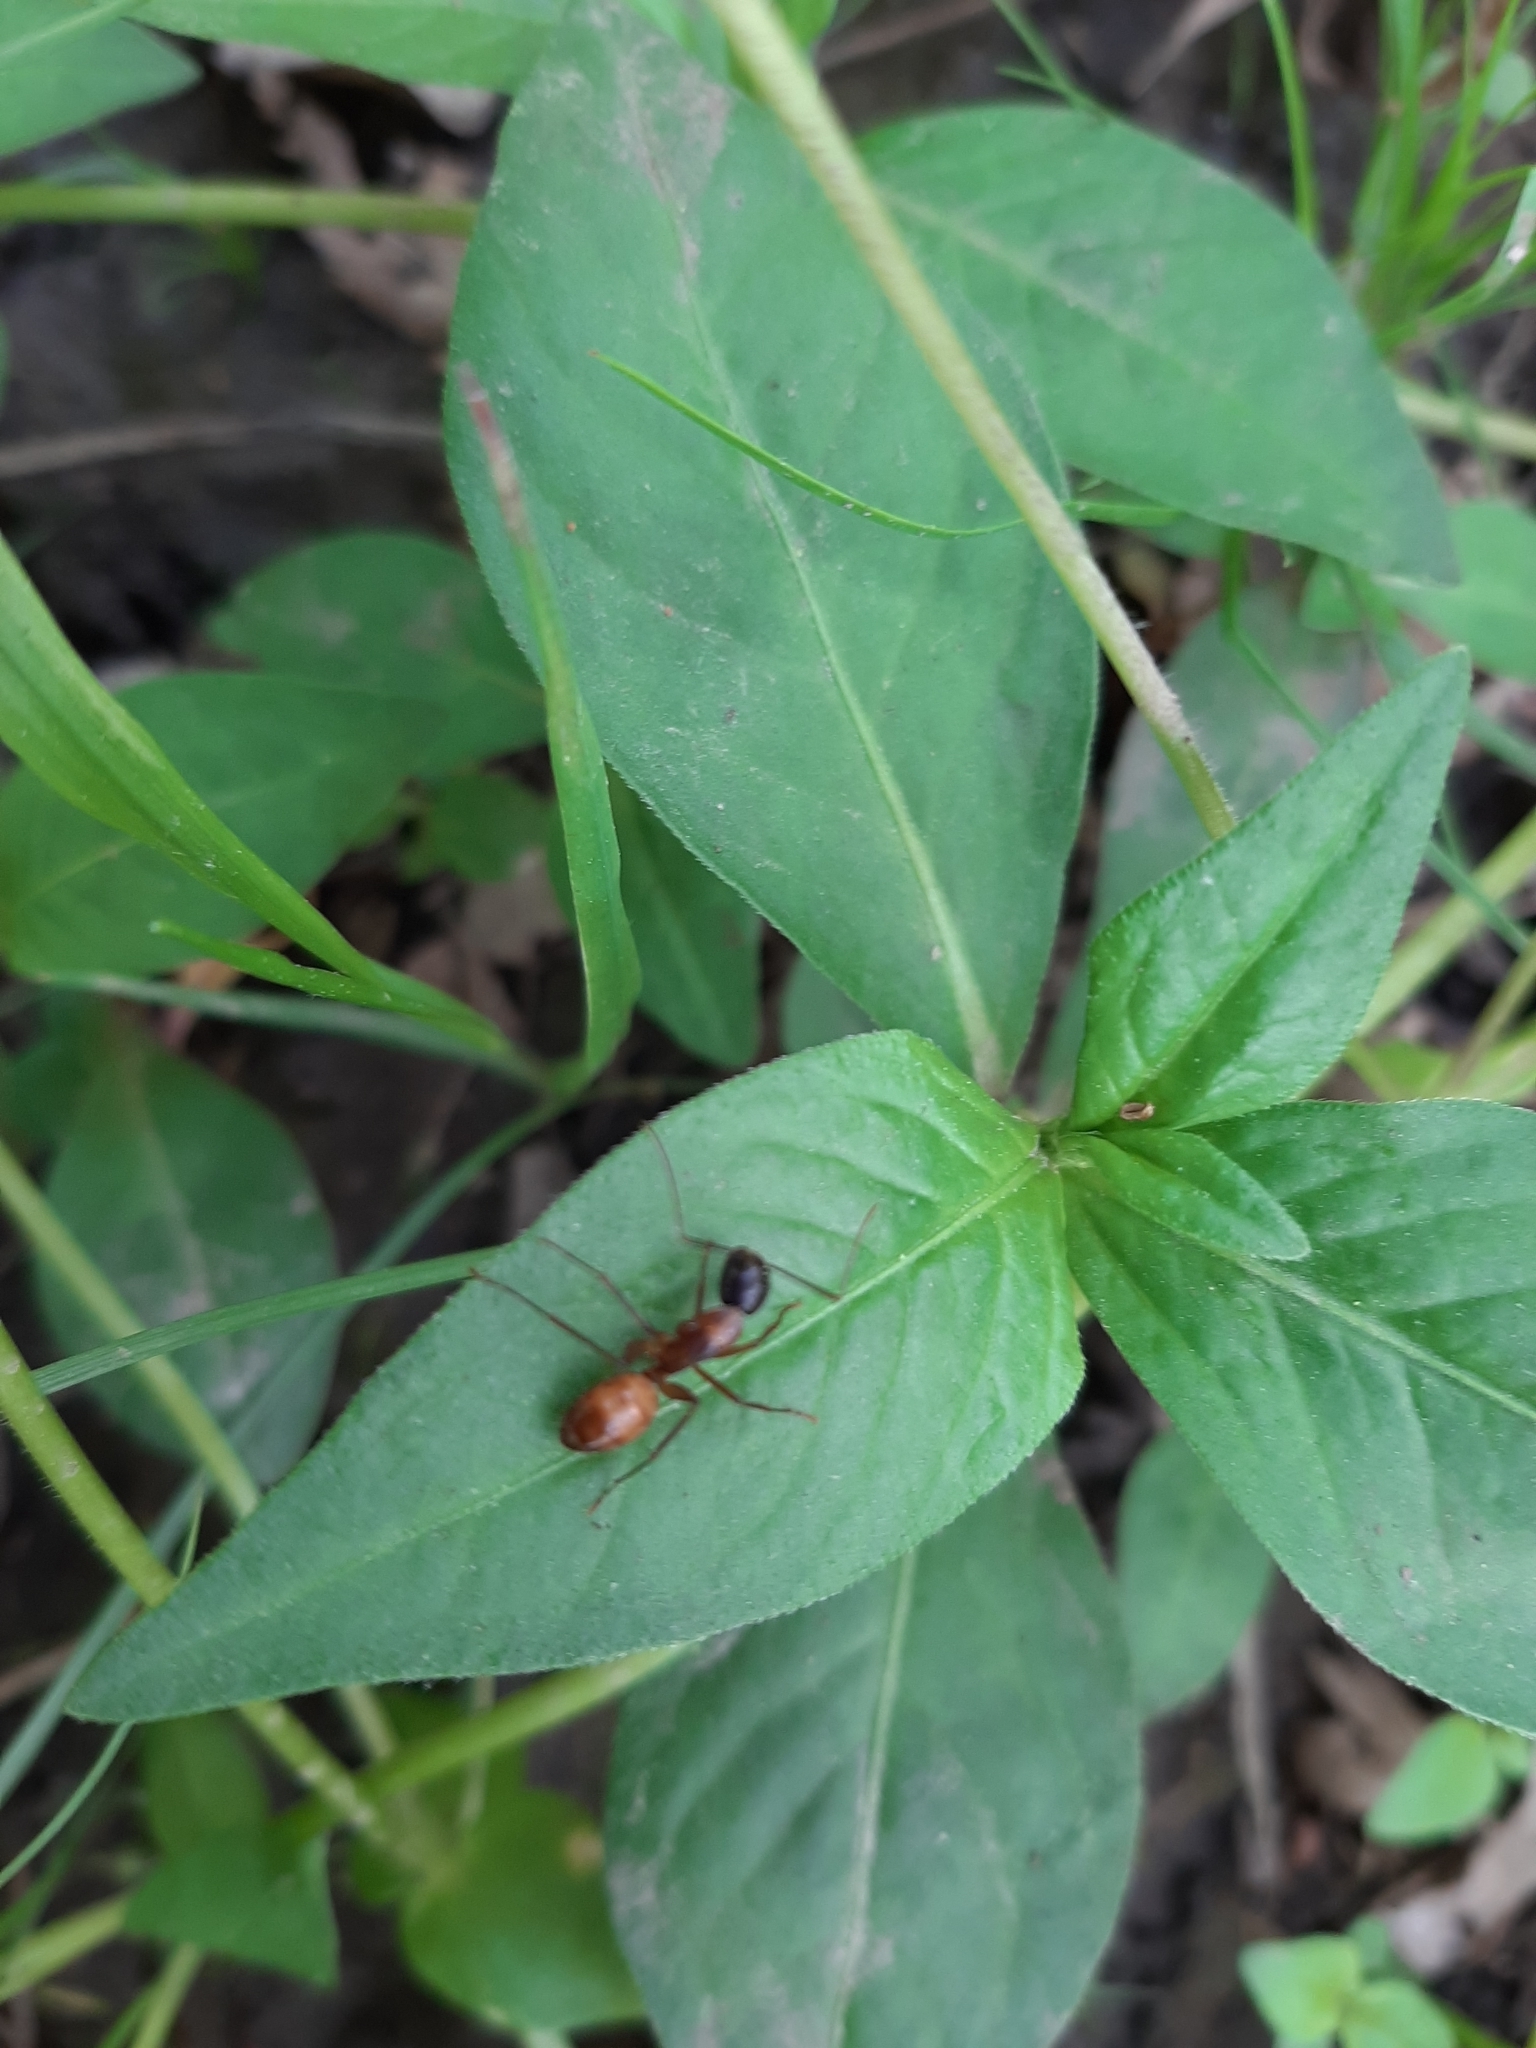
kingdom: Animalia
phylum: Arthropoda
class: Insecta
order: Hymenoptera
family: Formicidae
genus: Camponotus
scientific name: Camponotus americanus
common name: American carpenter ant
